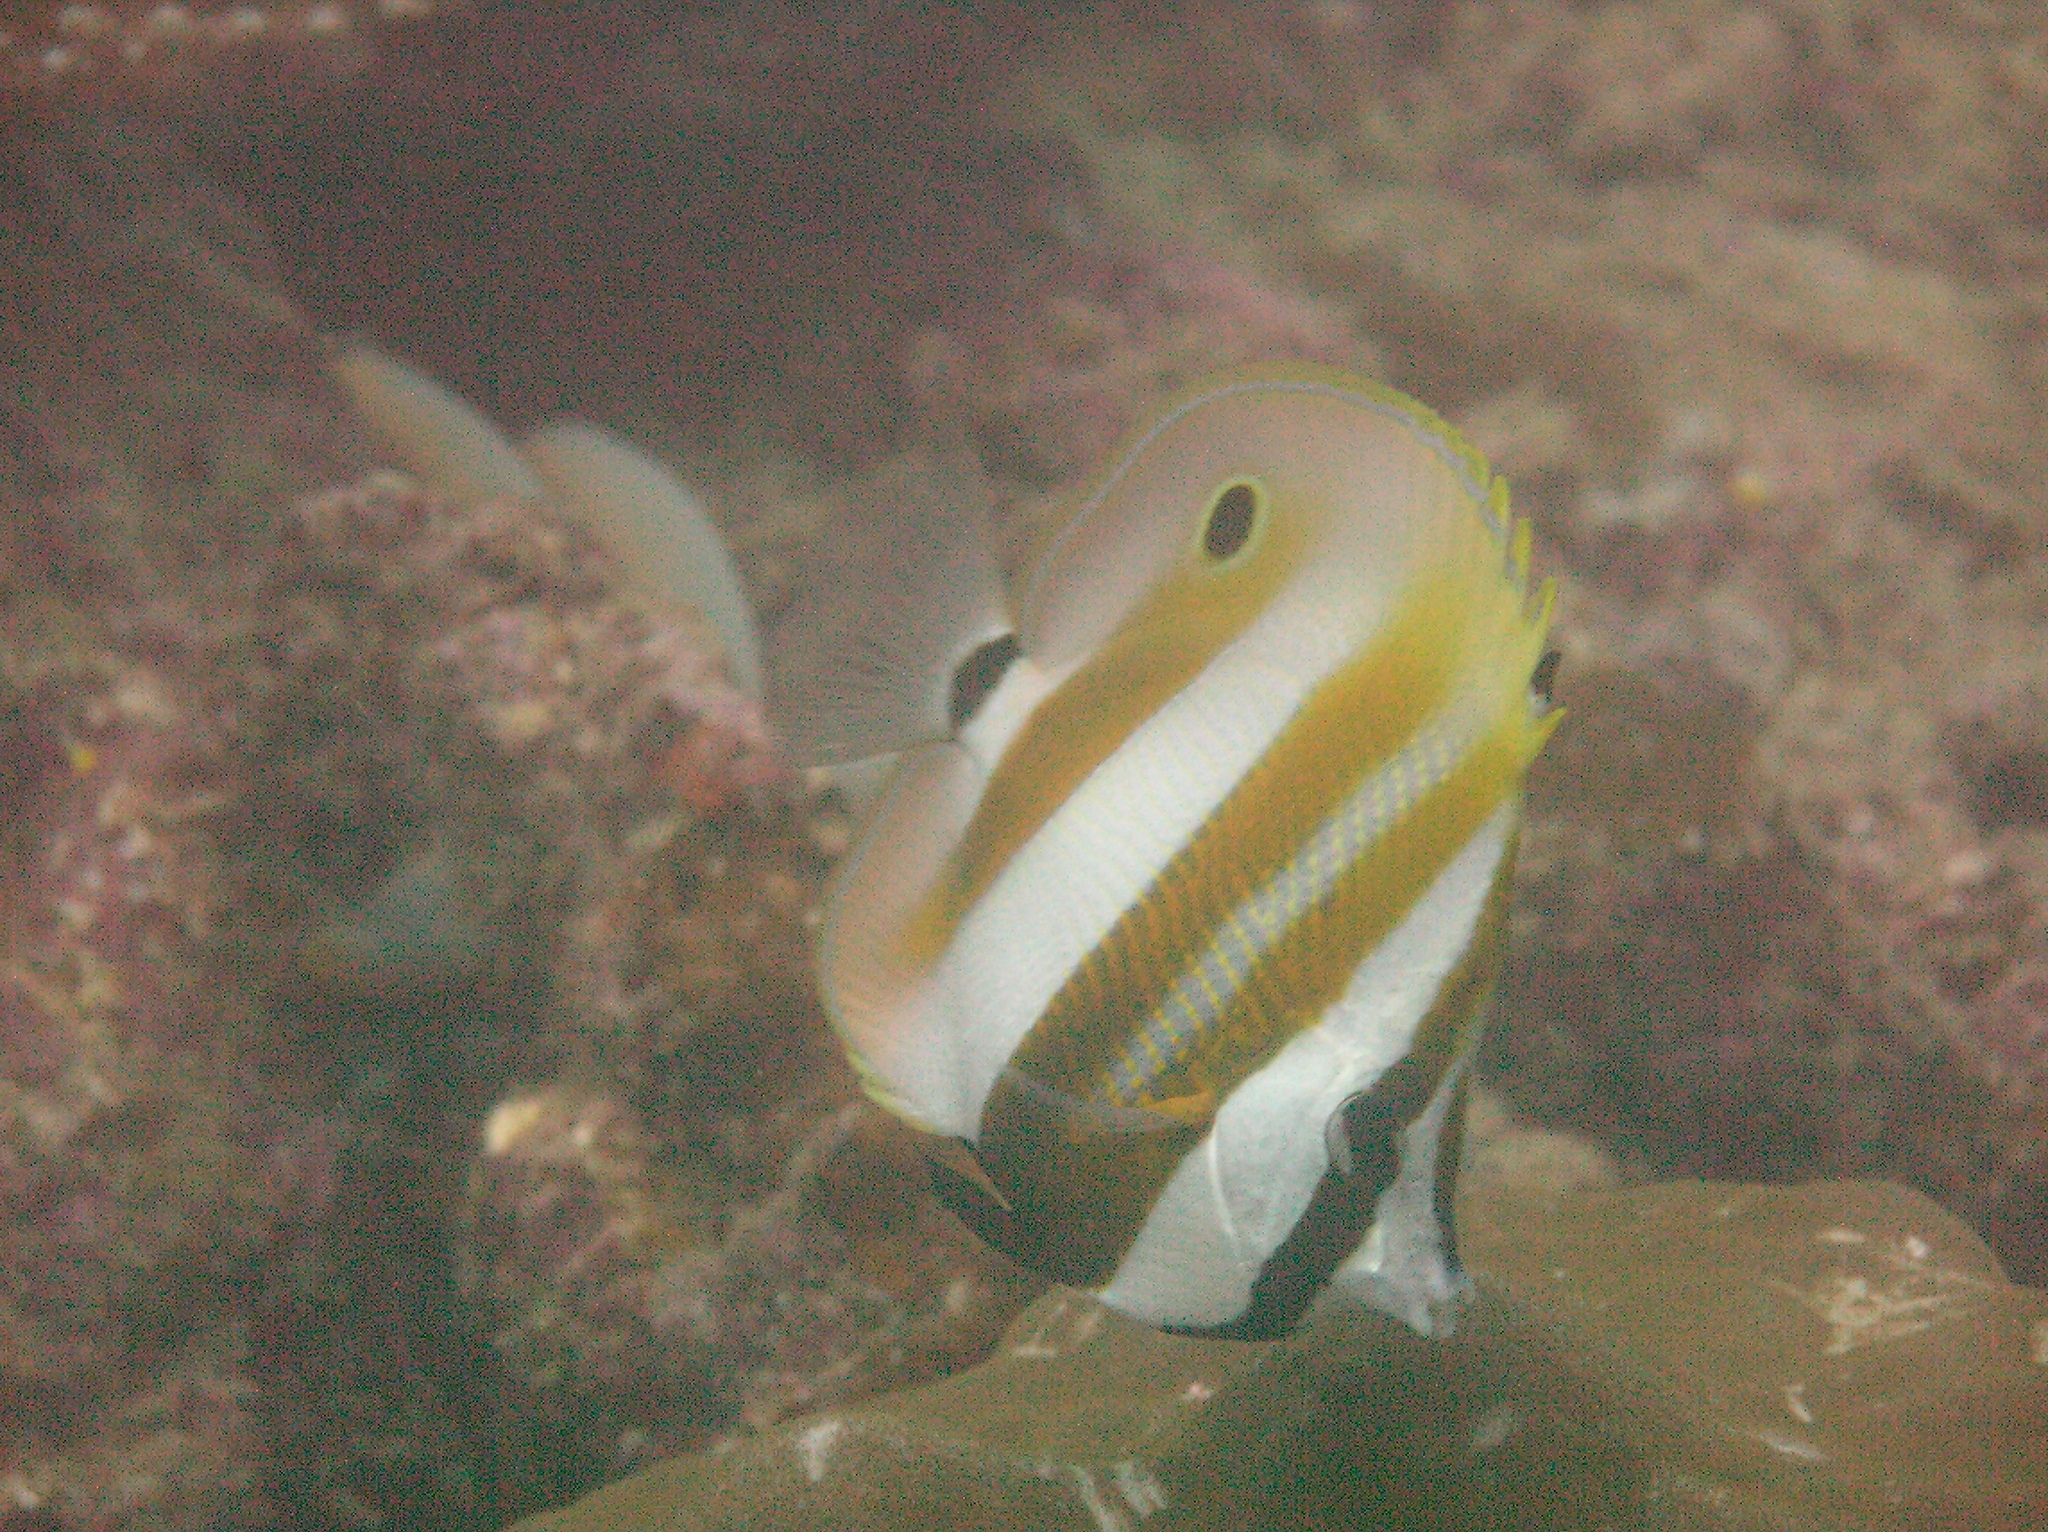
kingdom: Animalia
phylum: Chordata
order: Perciformes
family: Chaetodontidae
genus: Coradion
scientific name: Coradion chrysozonus
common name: Orange-banded coralfish
